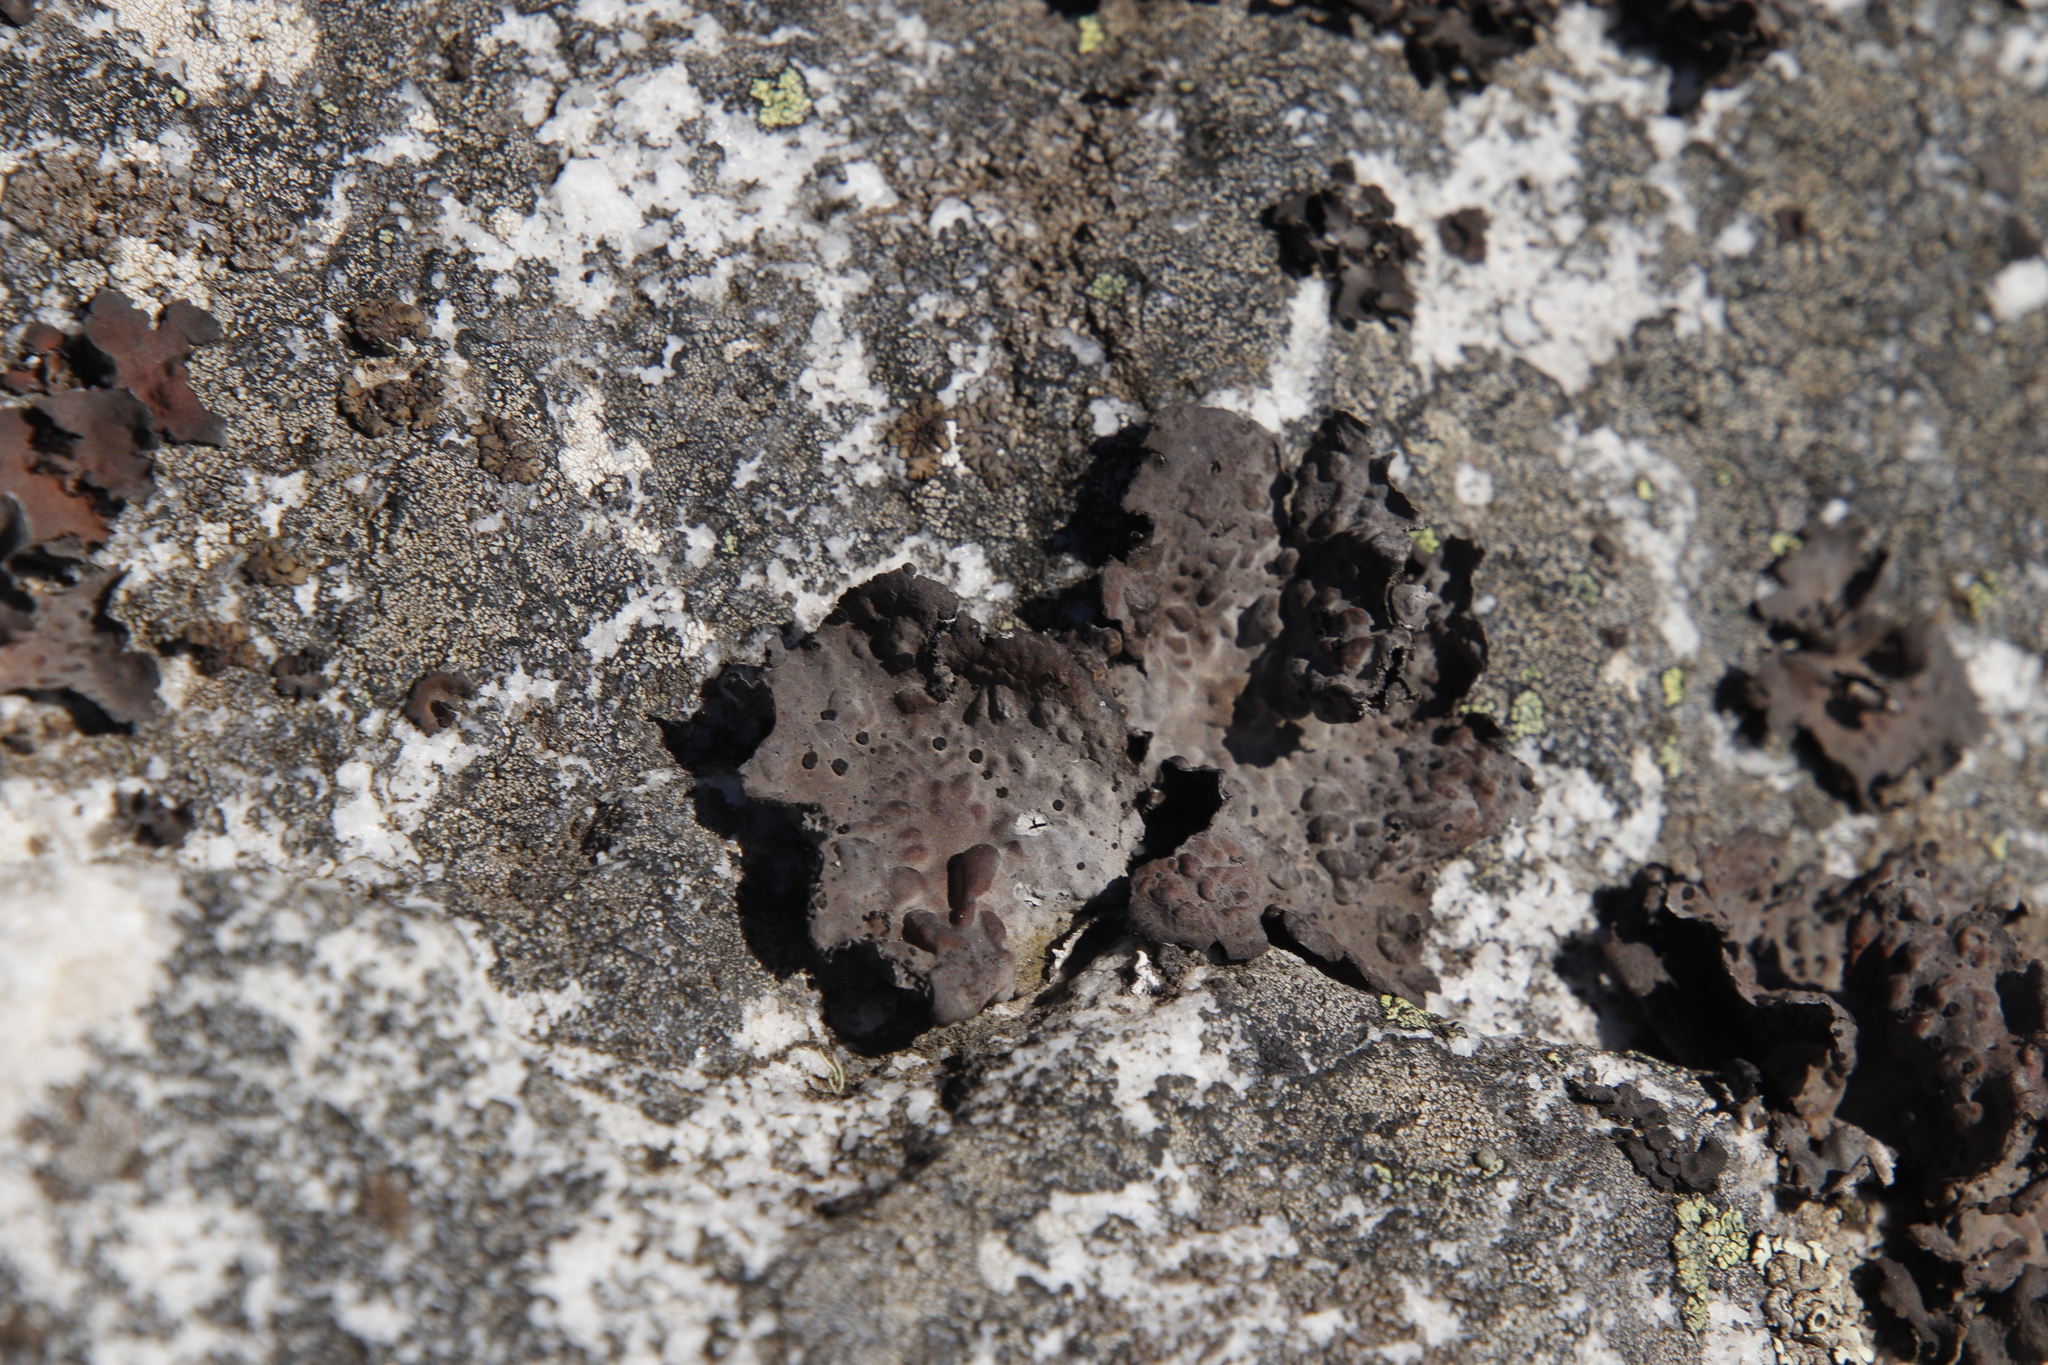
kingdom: Fungi
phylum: Ascomycota
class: Lecanoromycetes
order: Umbilicariales
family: Umbilicariaceae
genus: Lasallia
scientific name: Lasallia rubiginosa
